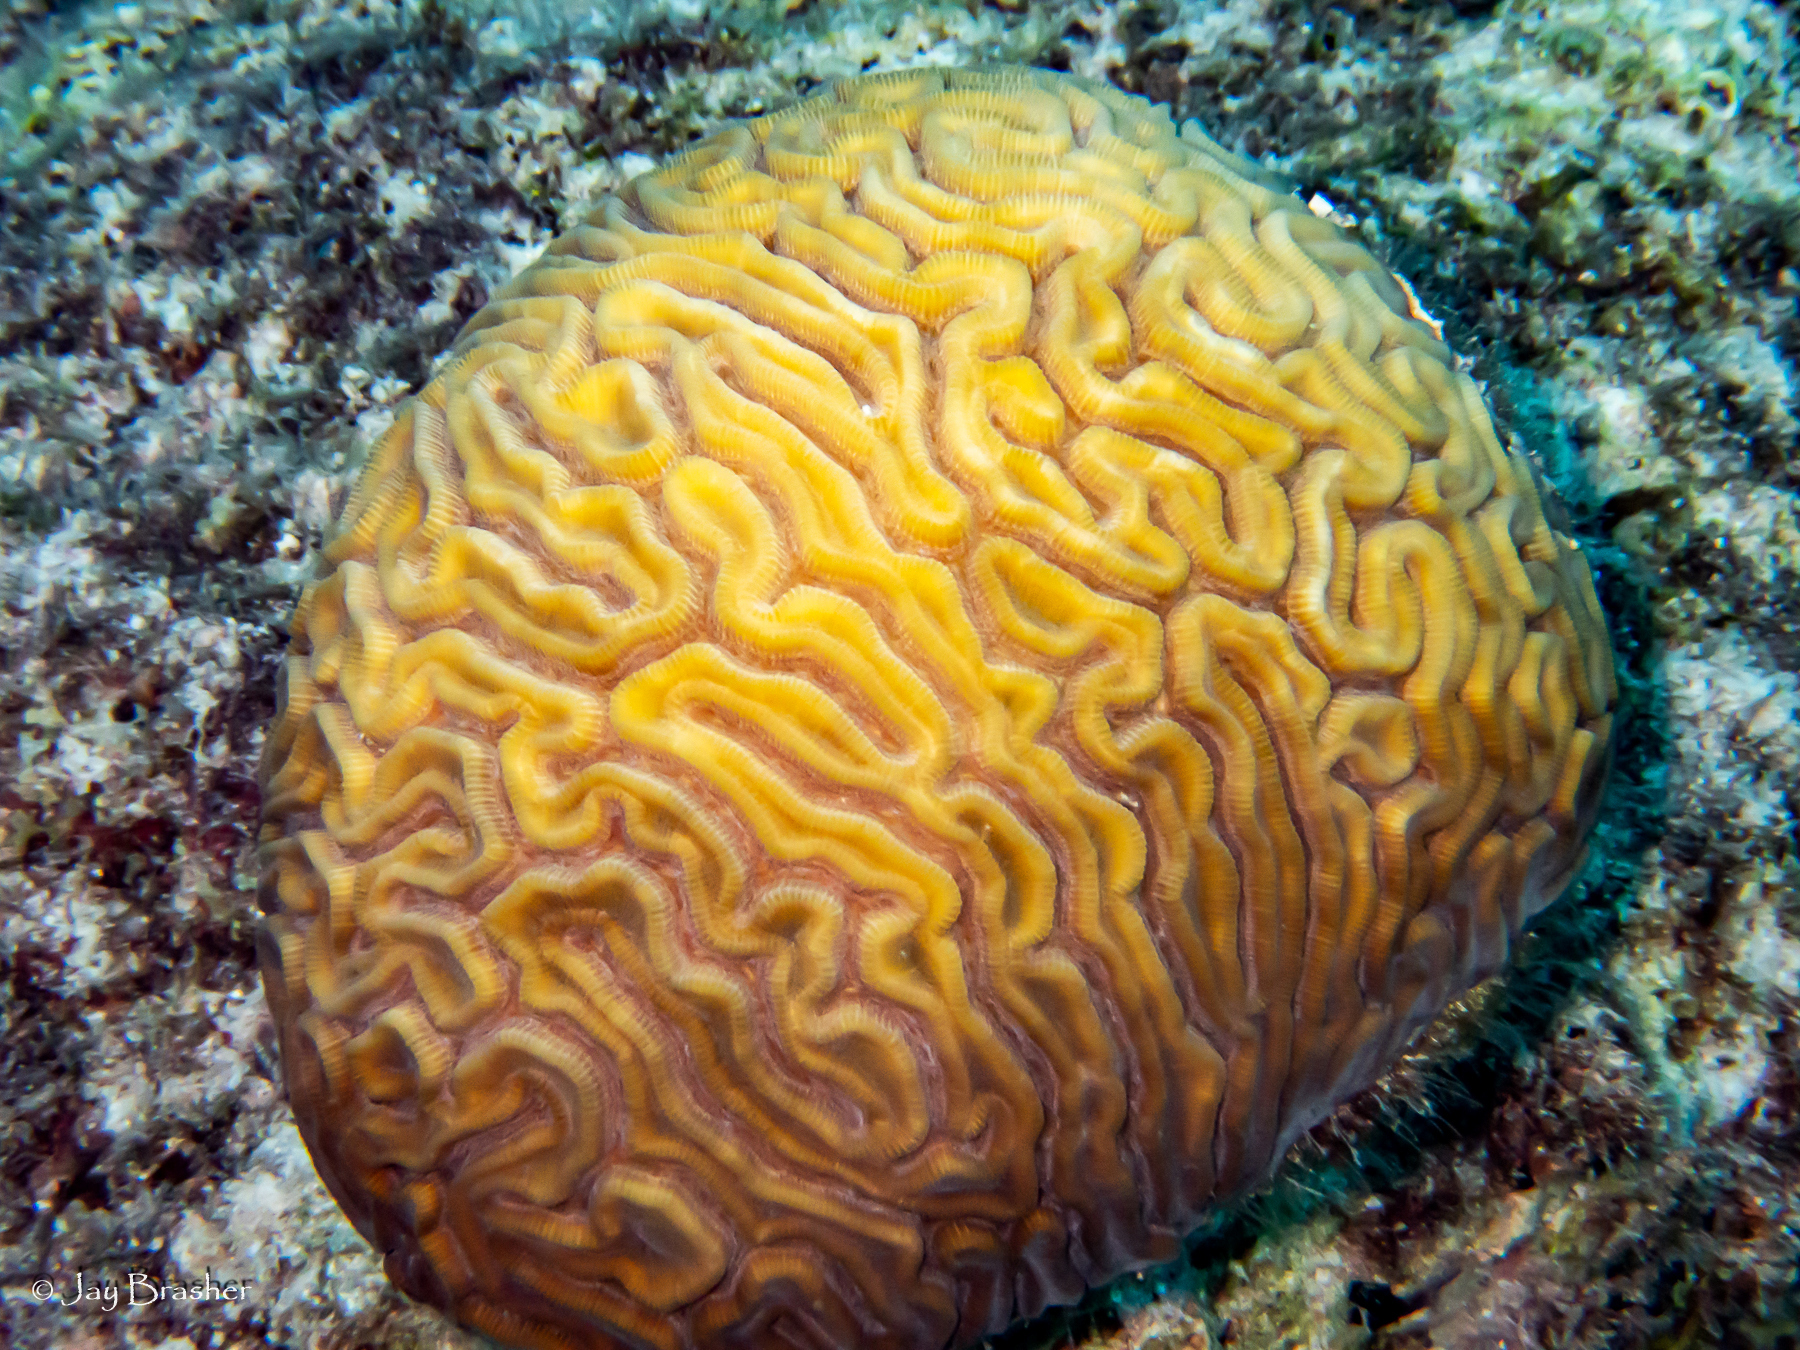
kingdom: Animalia
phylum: Cnidaria
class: Anthozoa
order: Scleractinia
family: Faviidae
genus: Diploria
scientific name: Diploria labyrinthiformis
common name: Grooved brain coral
